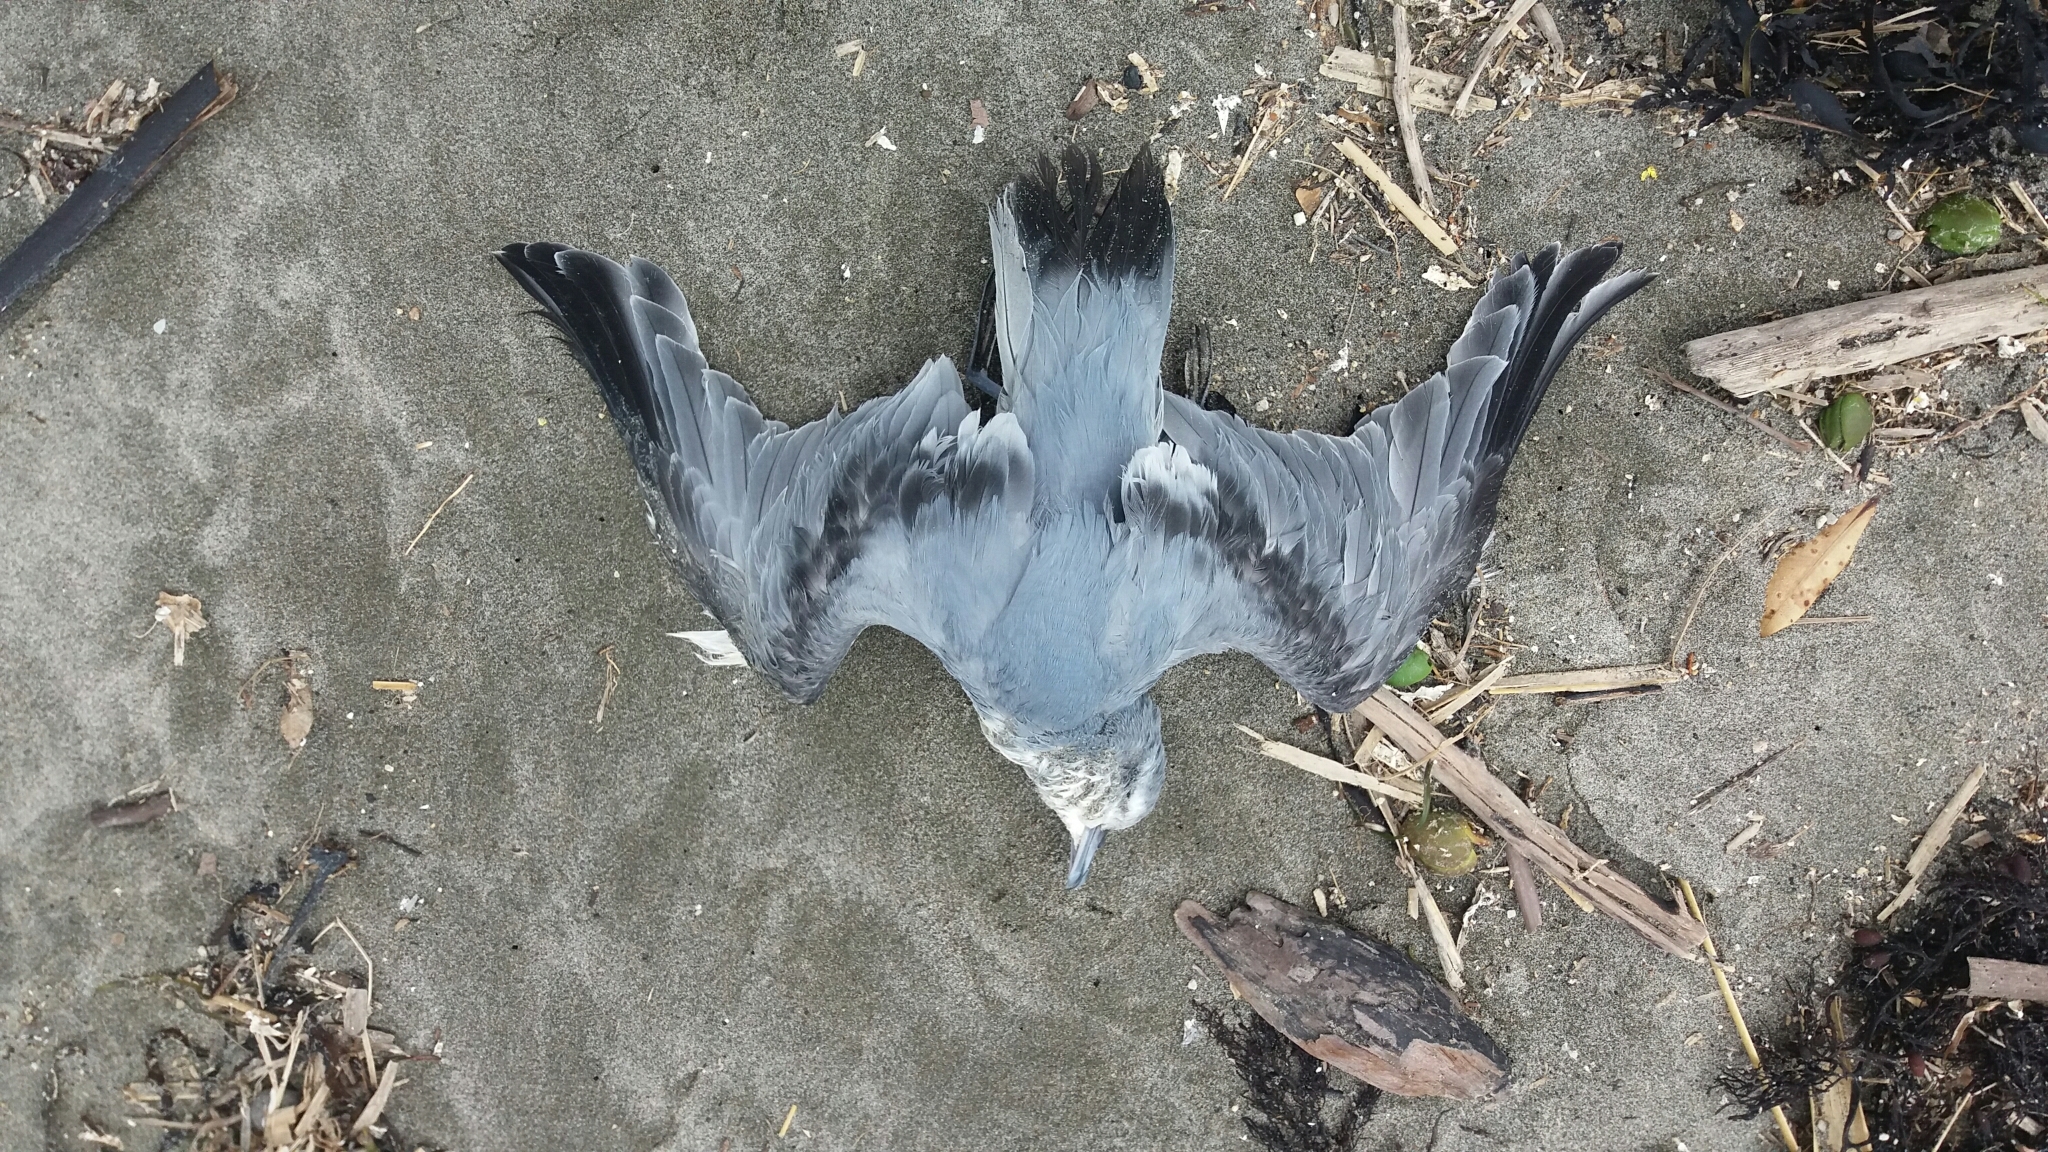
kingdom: Animalia
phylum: Chordata
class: Aves
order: Procellariiformes
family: Procellariidae
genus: Pachyptila
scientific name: Pachyptila turtur
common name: Fairy prion
